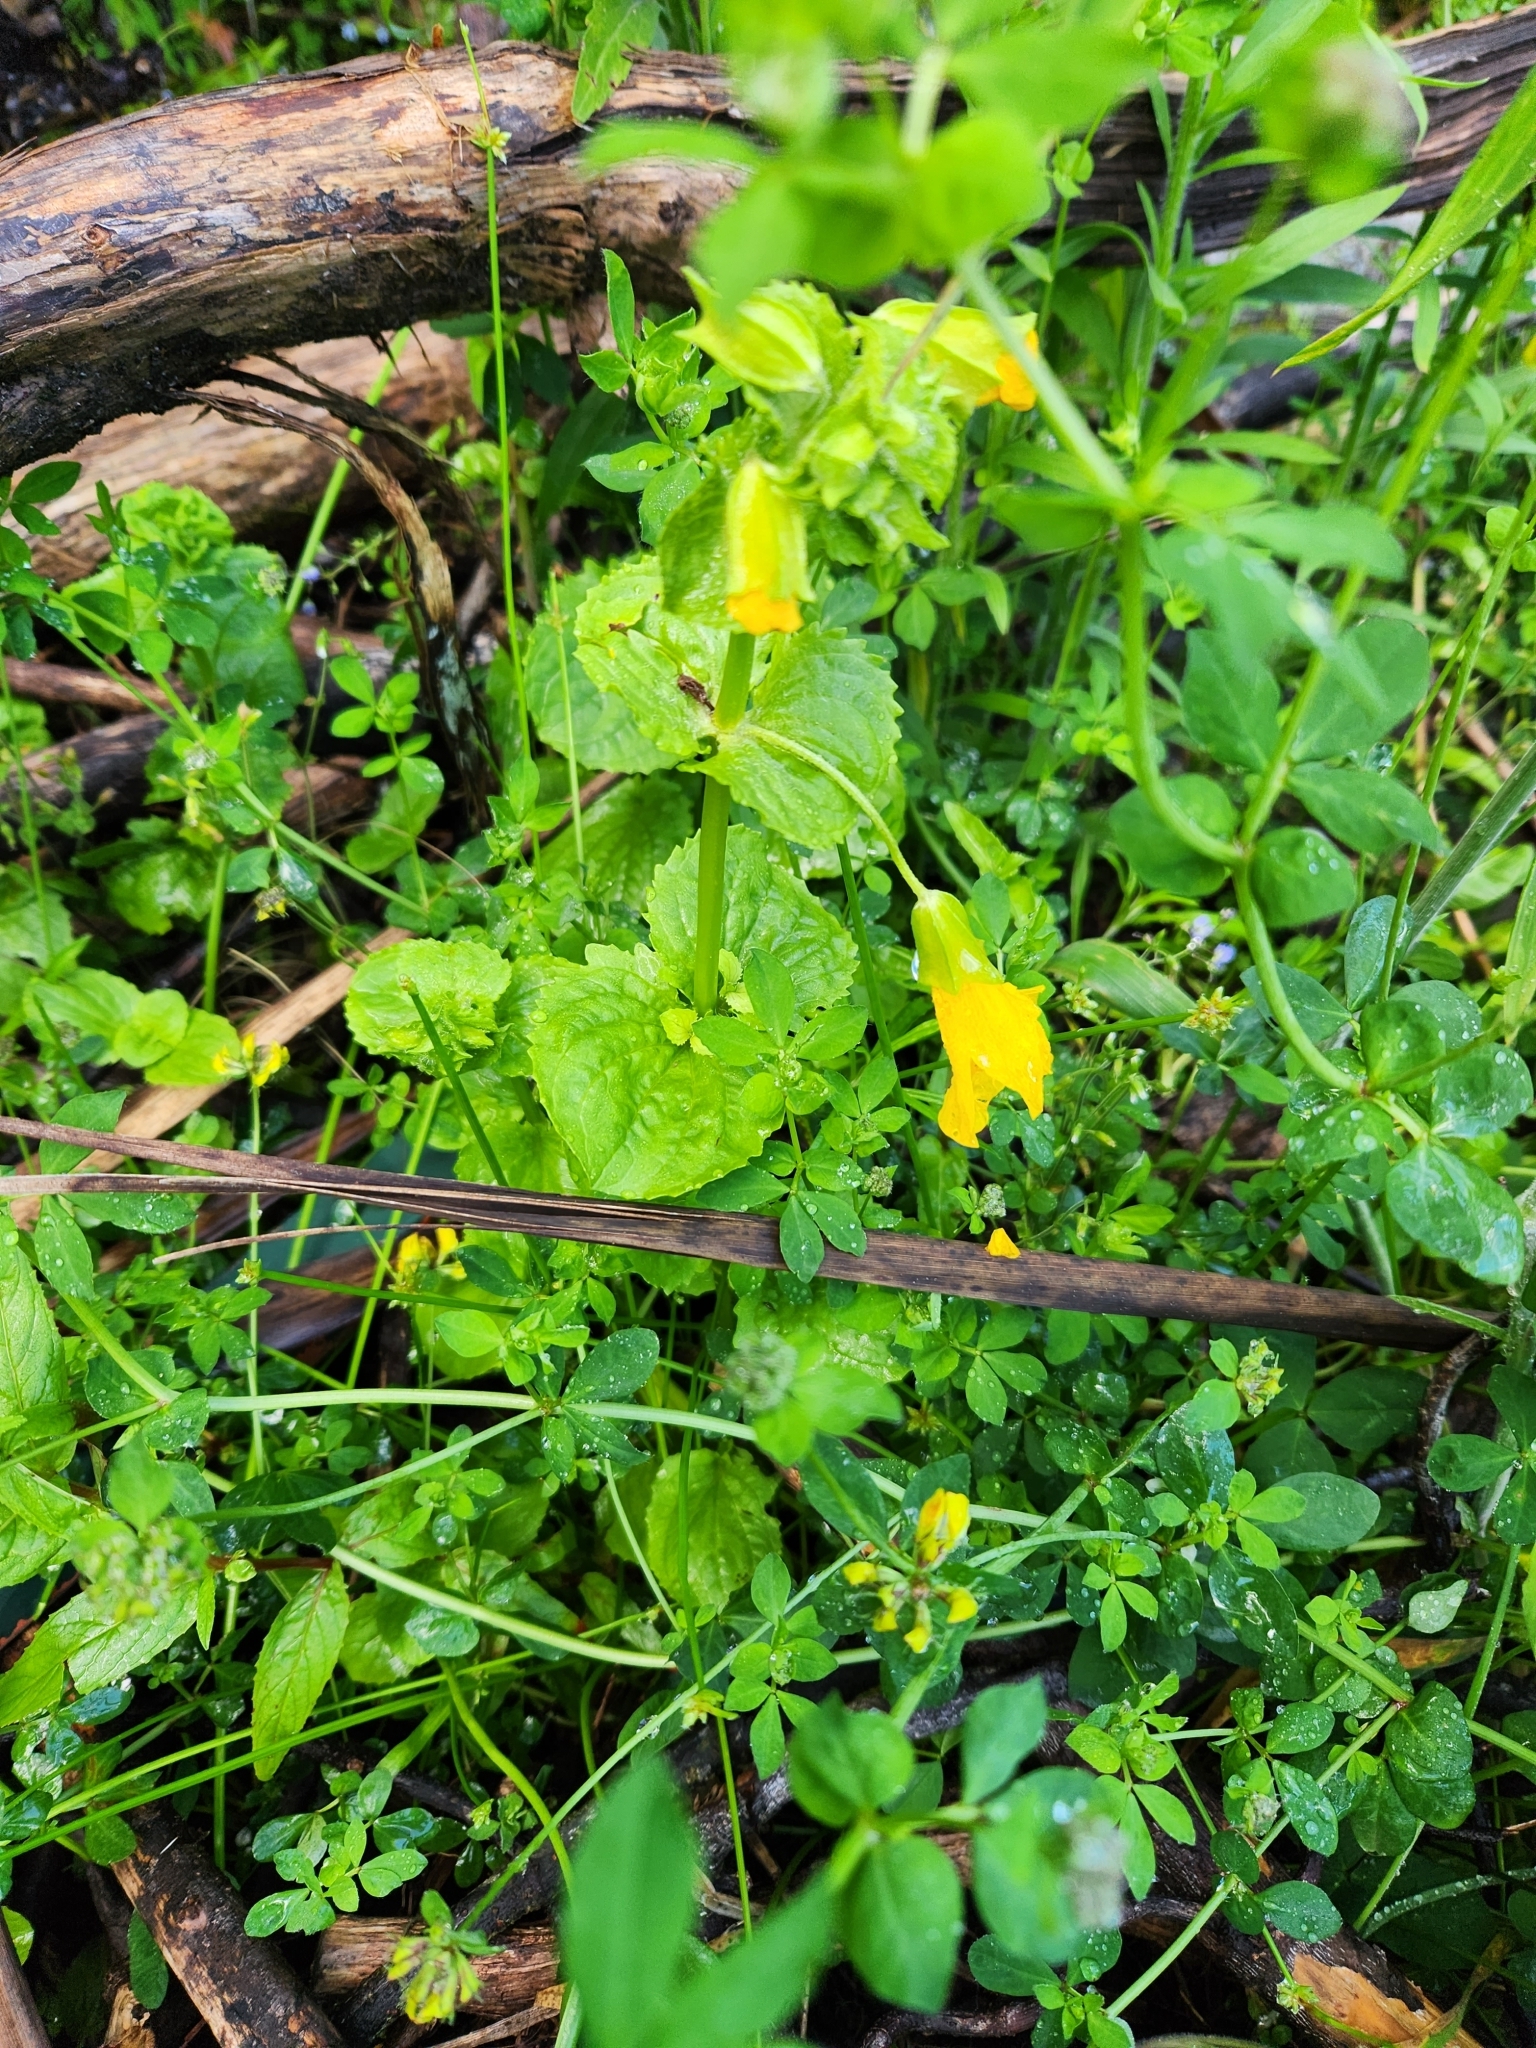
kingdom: Plantae
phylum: Tracheophyta
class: Magnoliopsida
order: Lamiales
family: Phrymaceae
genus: Erythranthe
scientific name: Erythranthe guttata
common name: Monkeyflower
